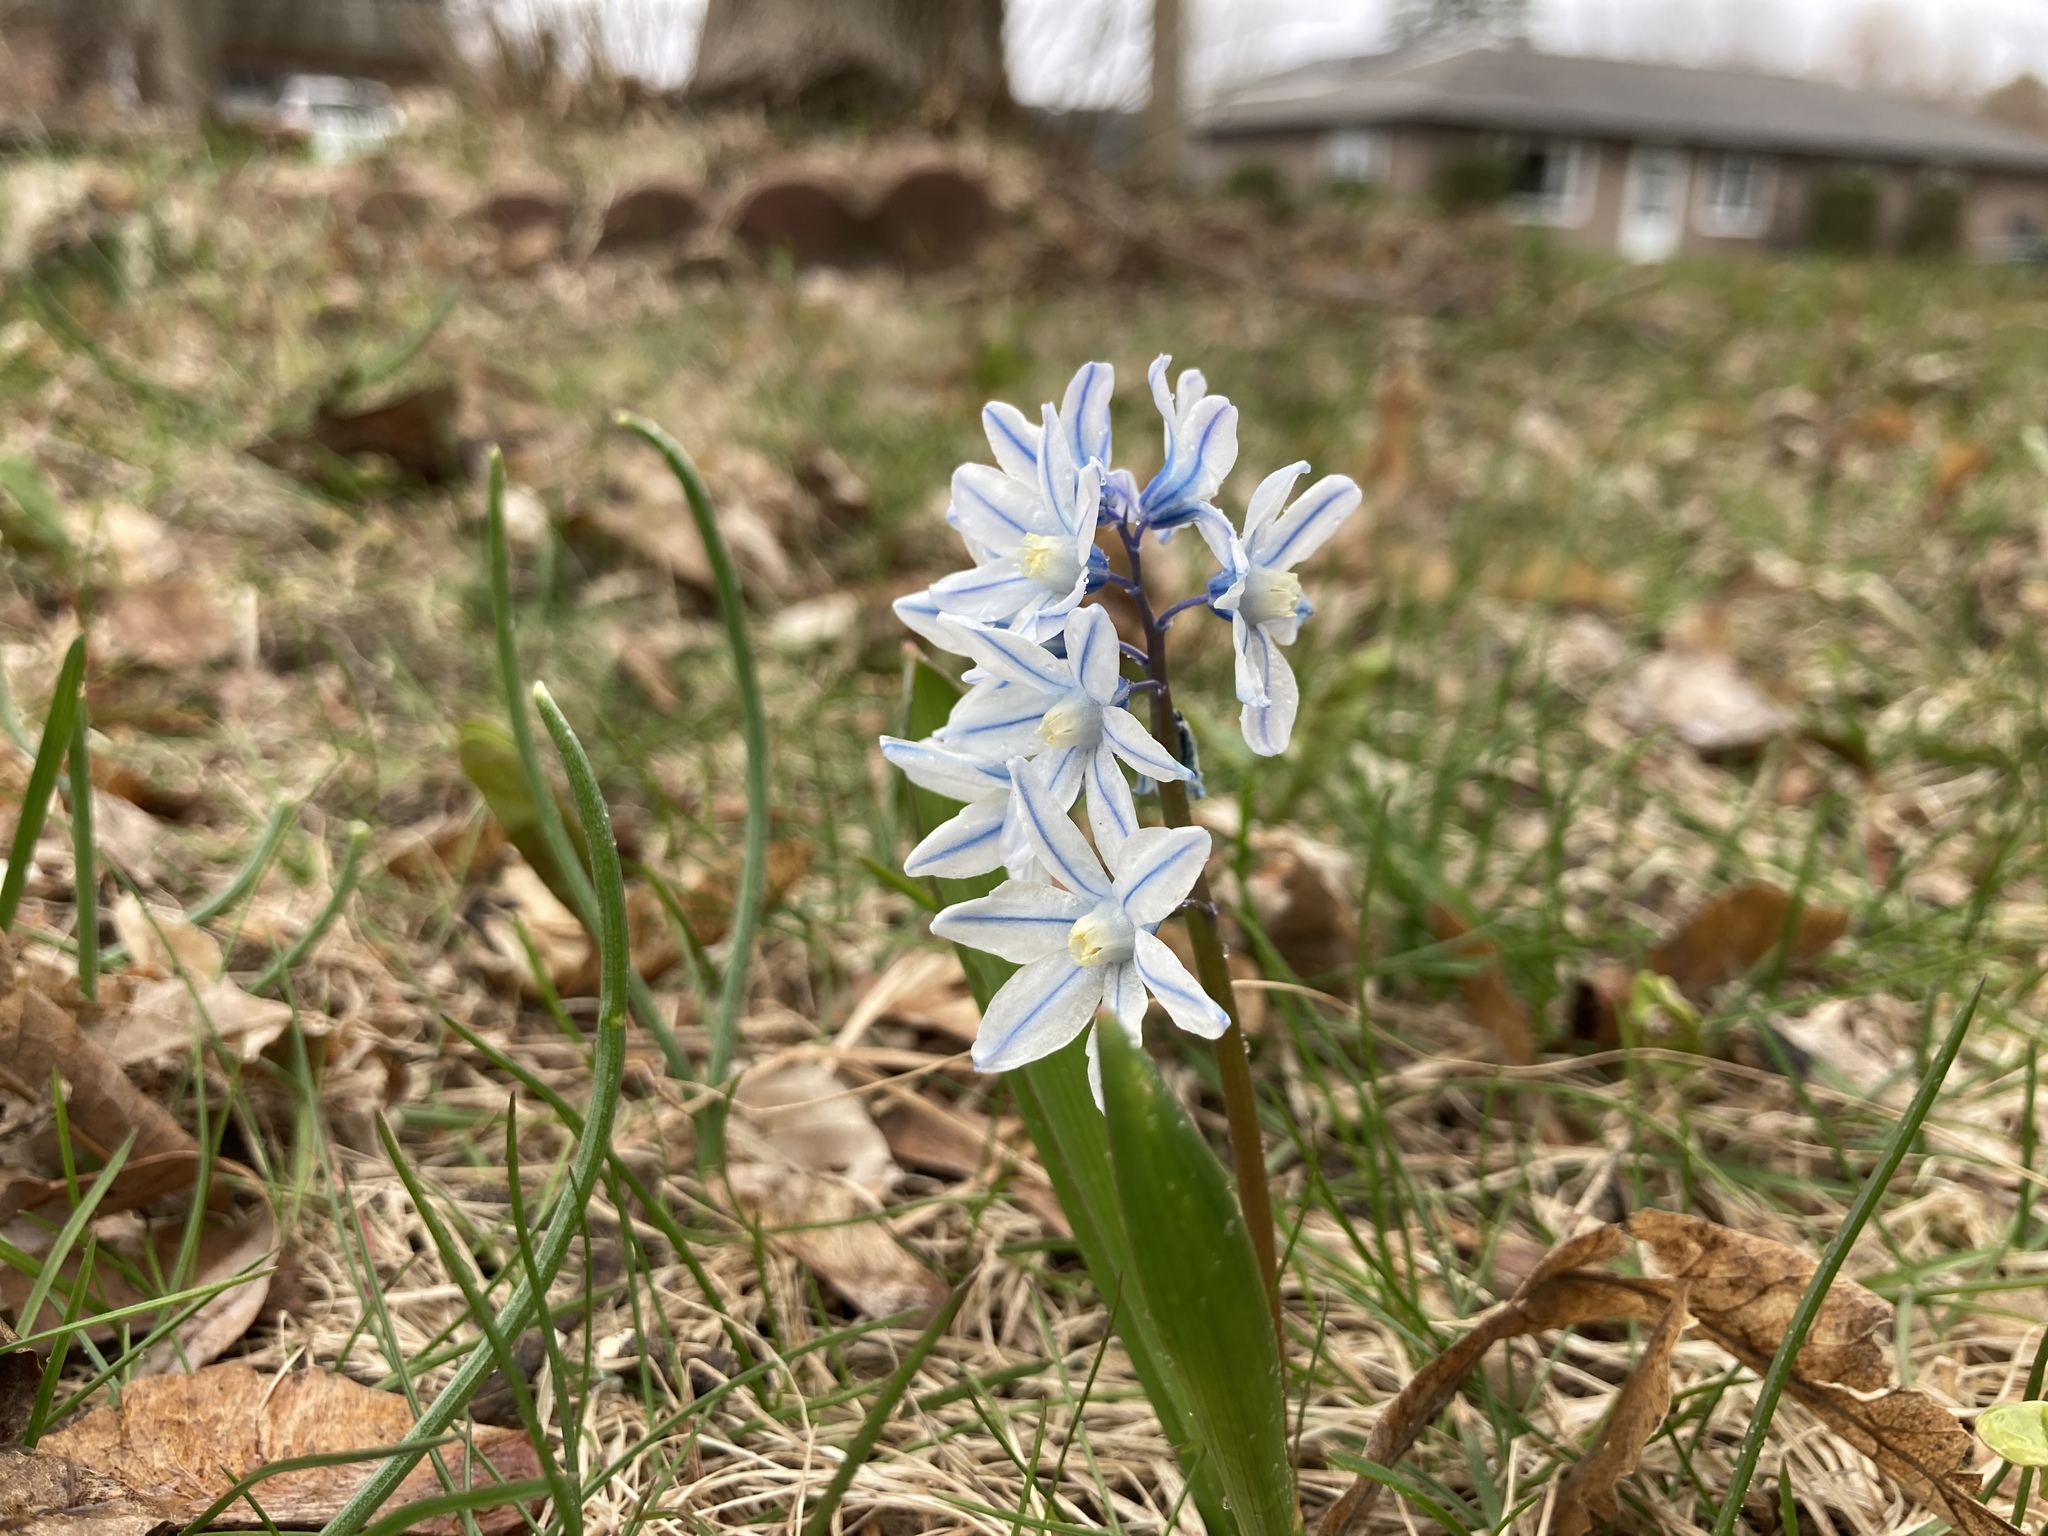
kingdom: Plantae
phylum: Tracheophyta
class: Liliopsida
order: Asparagales
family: Asparagaceae
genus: Puschkinia
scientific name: Puschkinia scilloides
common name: Striped squill
